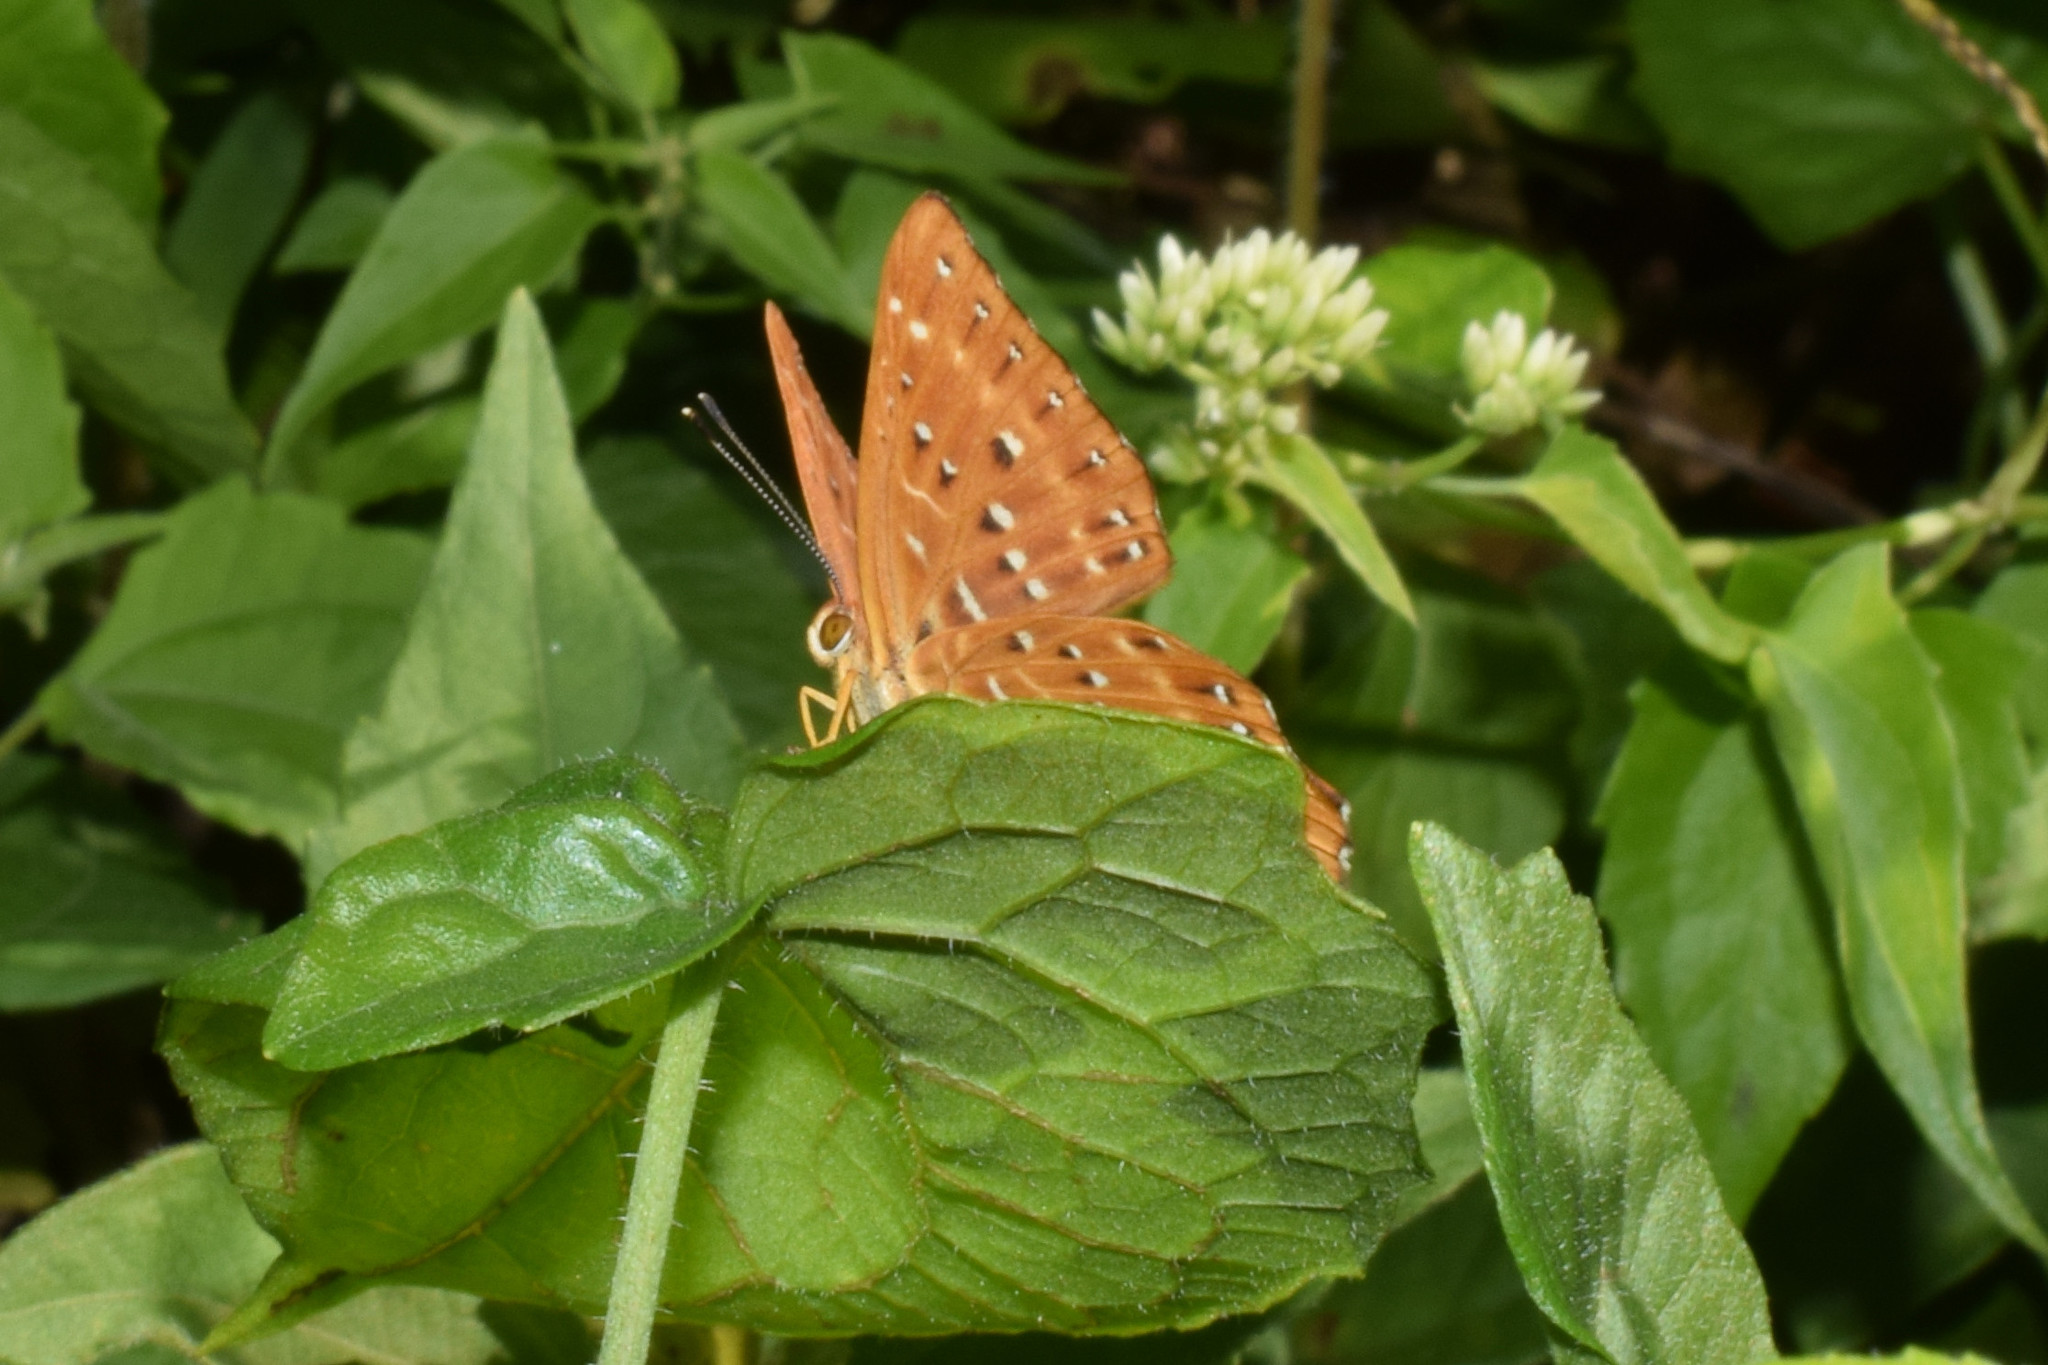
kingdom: Animalia
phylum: Arthropoda
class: Insecta
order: Lepidoptera
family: Riodinidae
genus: Zemeros
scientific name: Zemeros flegyas
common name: Punchinello
